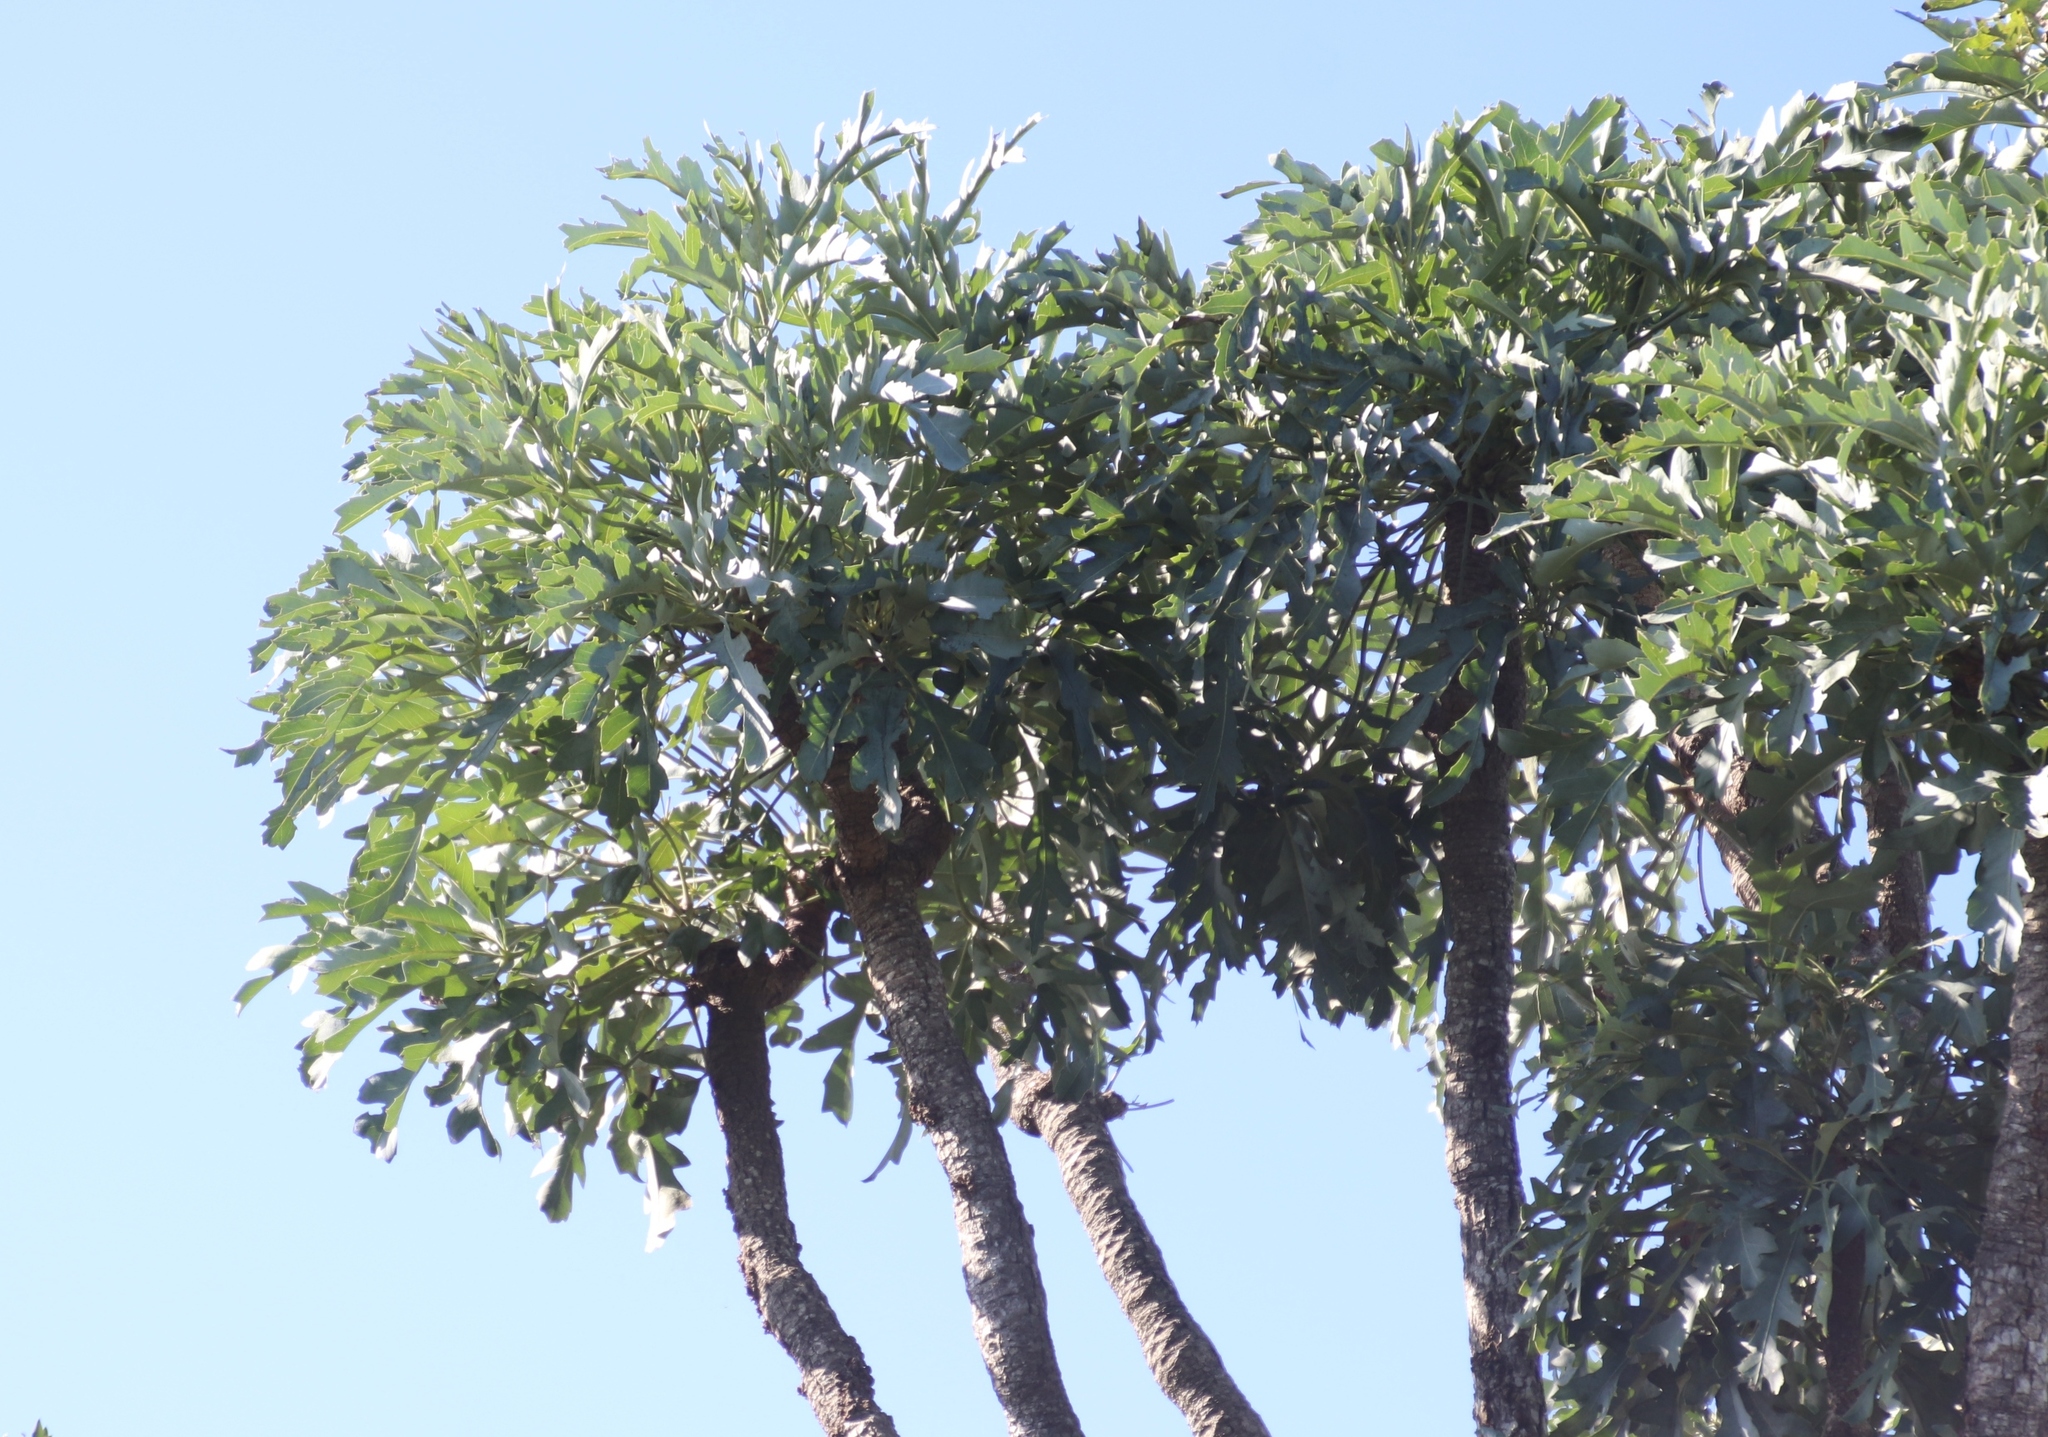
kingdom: Plantae
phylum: Tracheophyta
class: Magnoliopsida
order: Apiales
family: Araliaceae
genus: Cussonia
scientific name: Cussonia paniculata
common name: Cabbagetree
